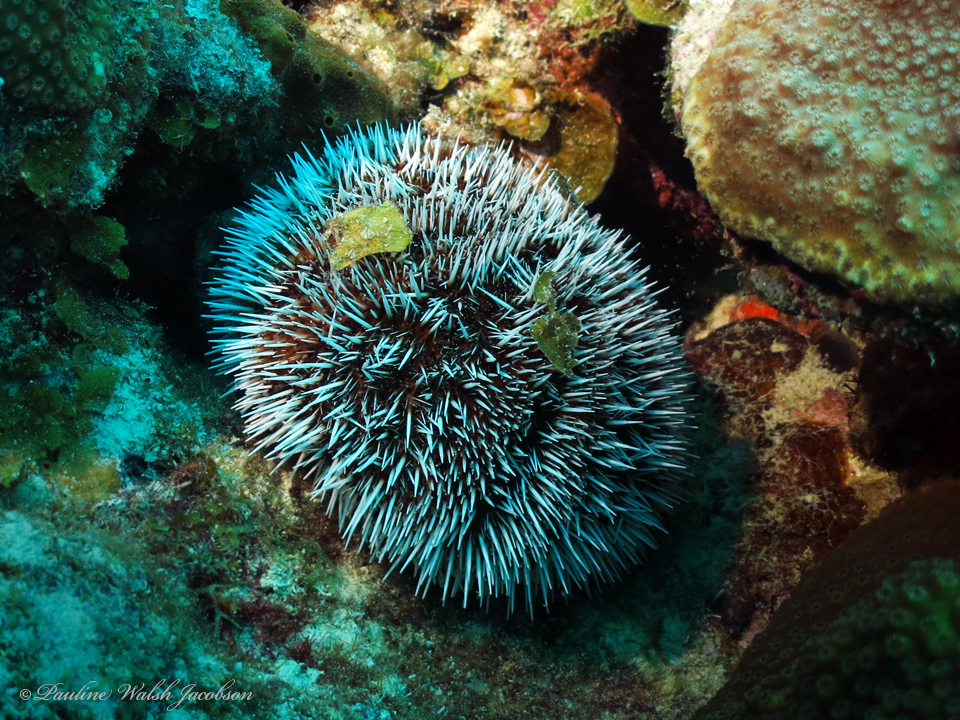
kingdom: Animalia
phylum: Echinodermata
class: Echinoidea
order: Camarodonta
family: Toxopneustidae
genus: Tripneustes
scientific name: Tripneustes ventricosus
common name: West indian sea egg
